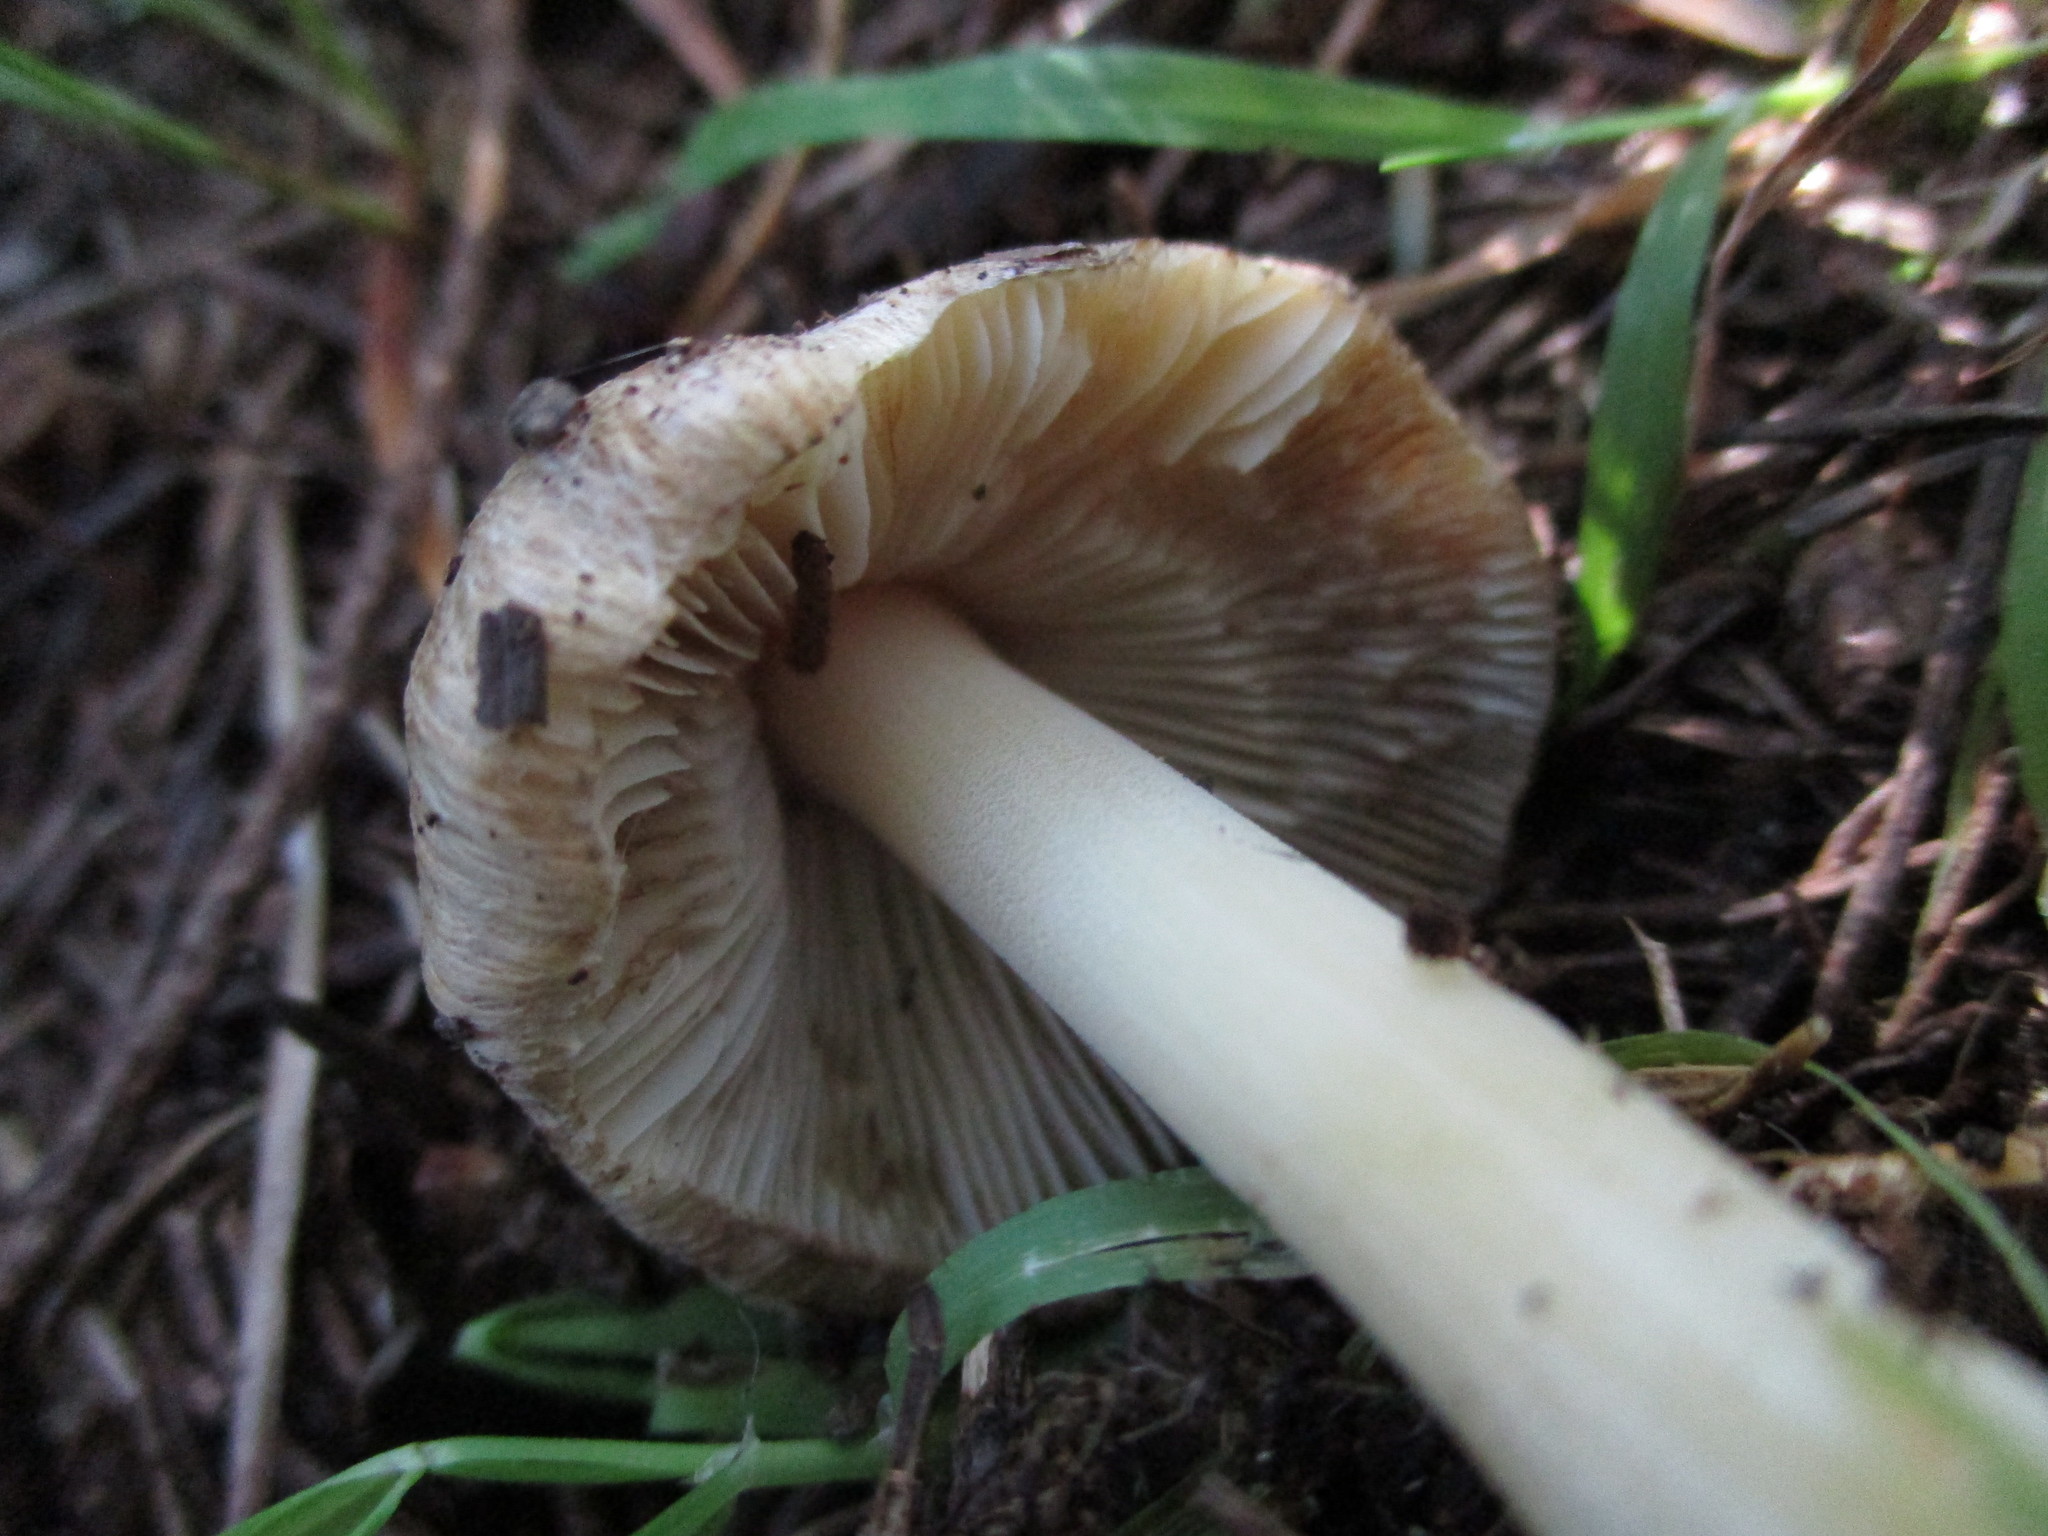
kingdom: Fungi
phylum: Basidiomycota
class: Agaricomycetes
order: Agaricales
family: Inocybaceae
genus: Pseudosperma
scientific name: Pseudosperma sororium
